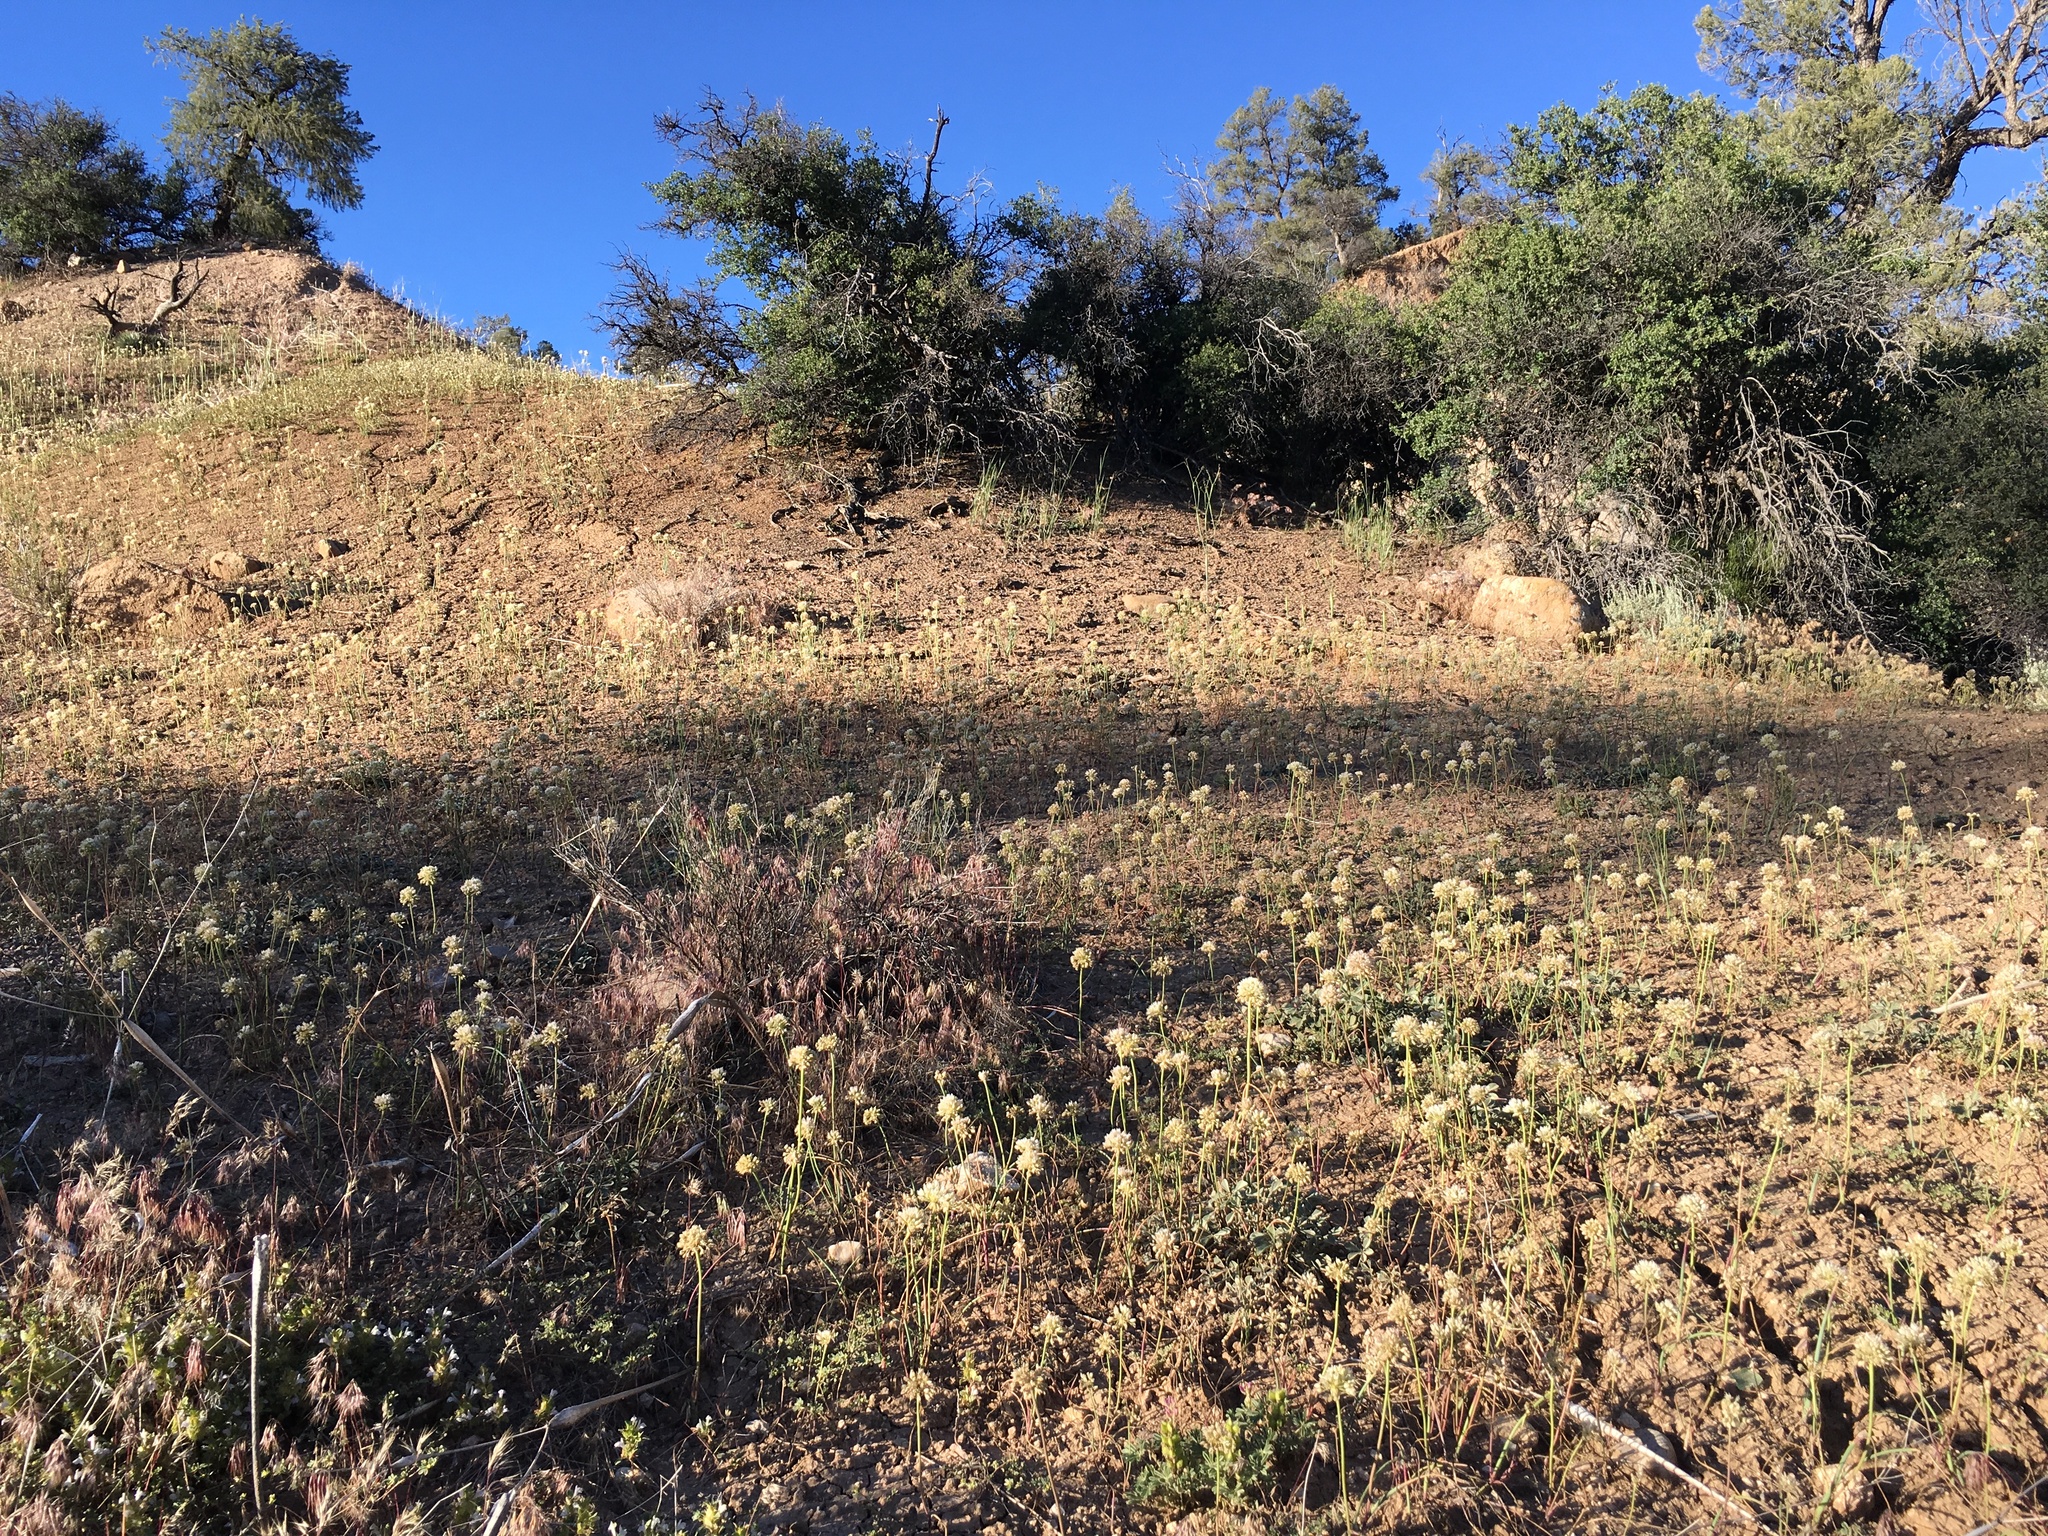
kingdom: Plantae
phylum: Tracheophyta
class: Liliopsida
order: Asparagales
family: Amaryllidaceae
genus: Allium
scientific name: Allium howellii
